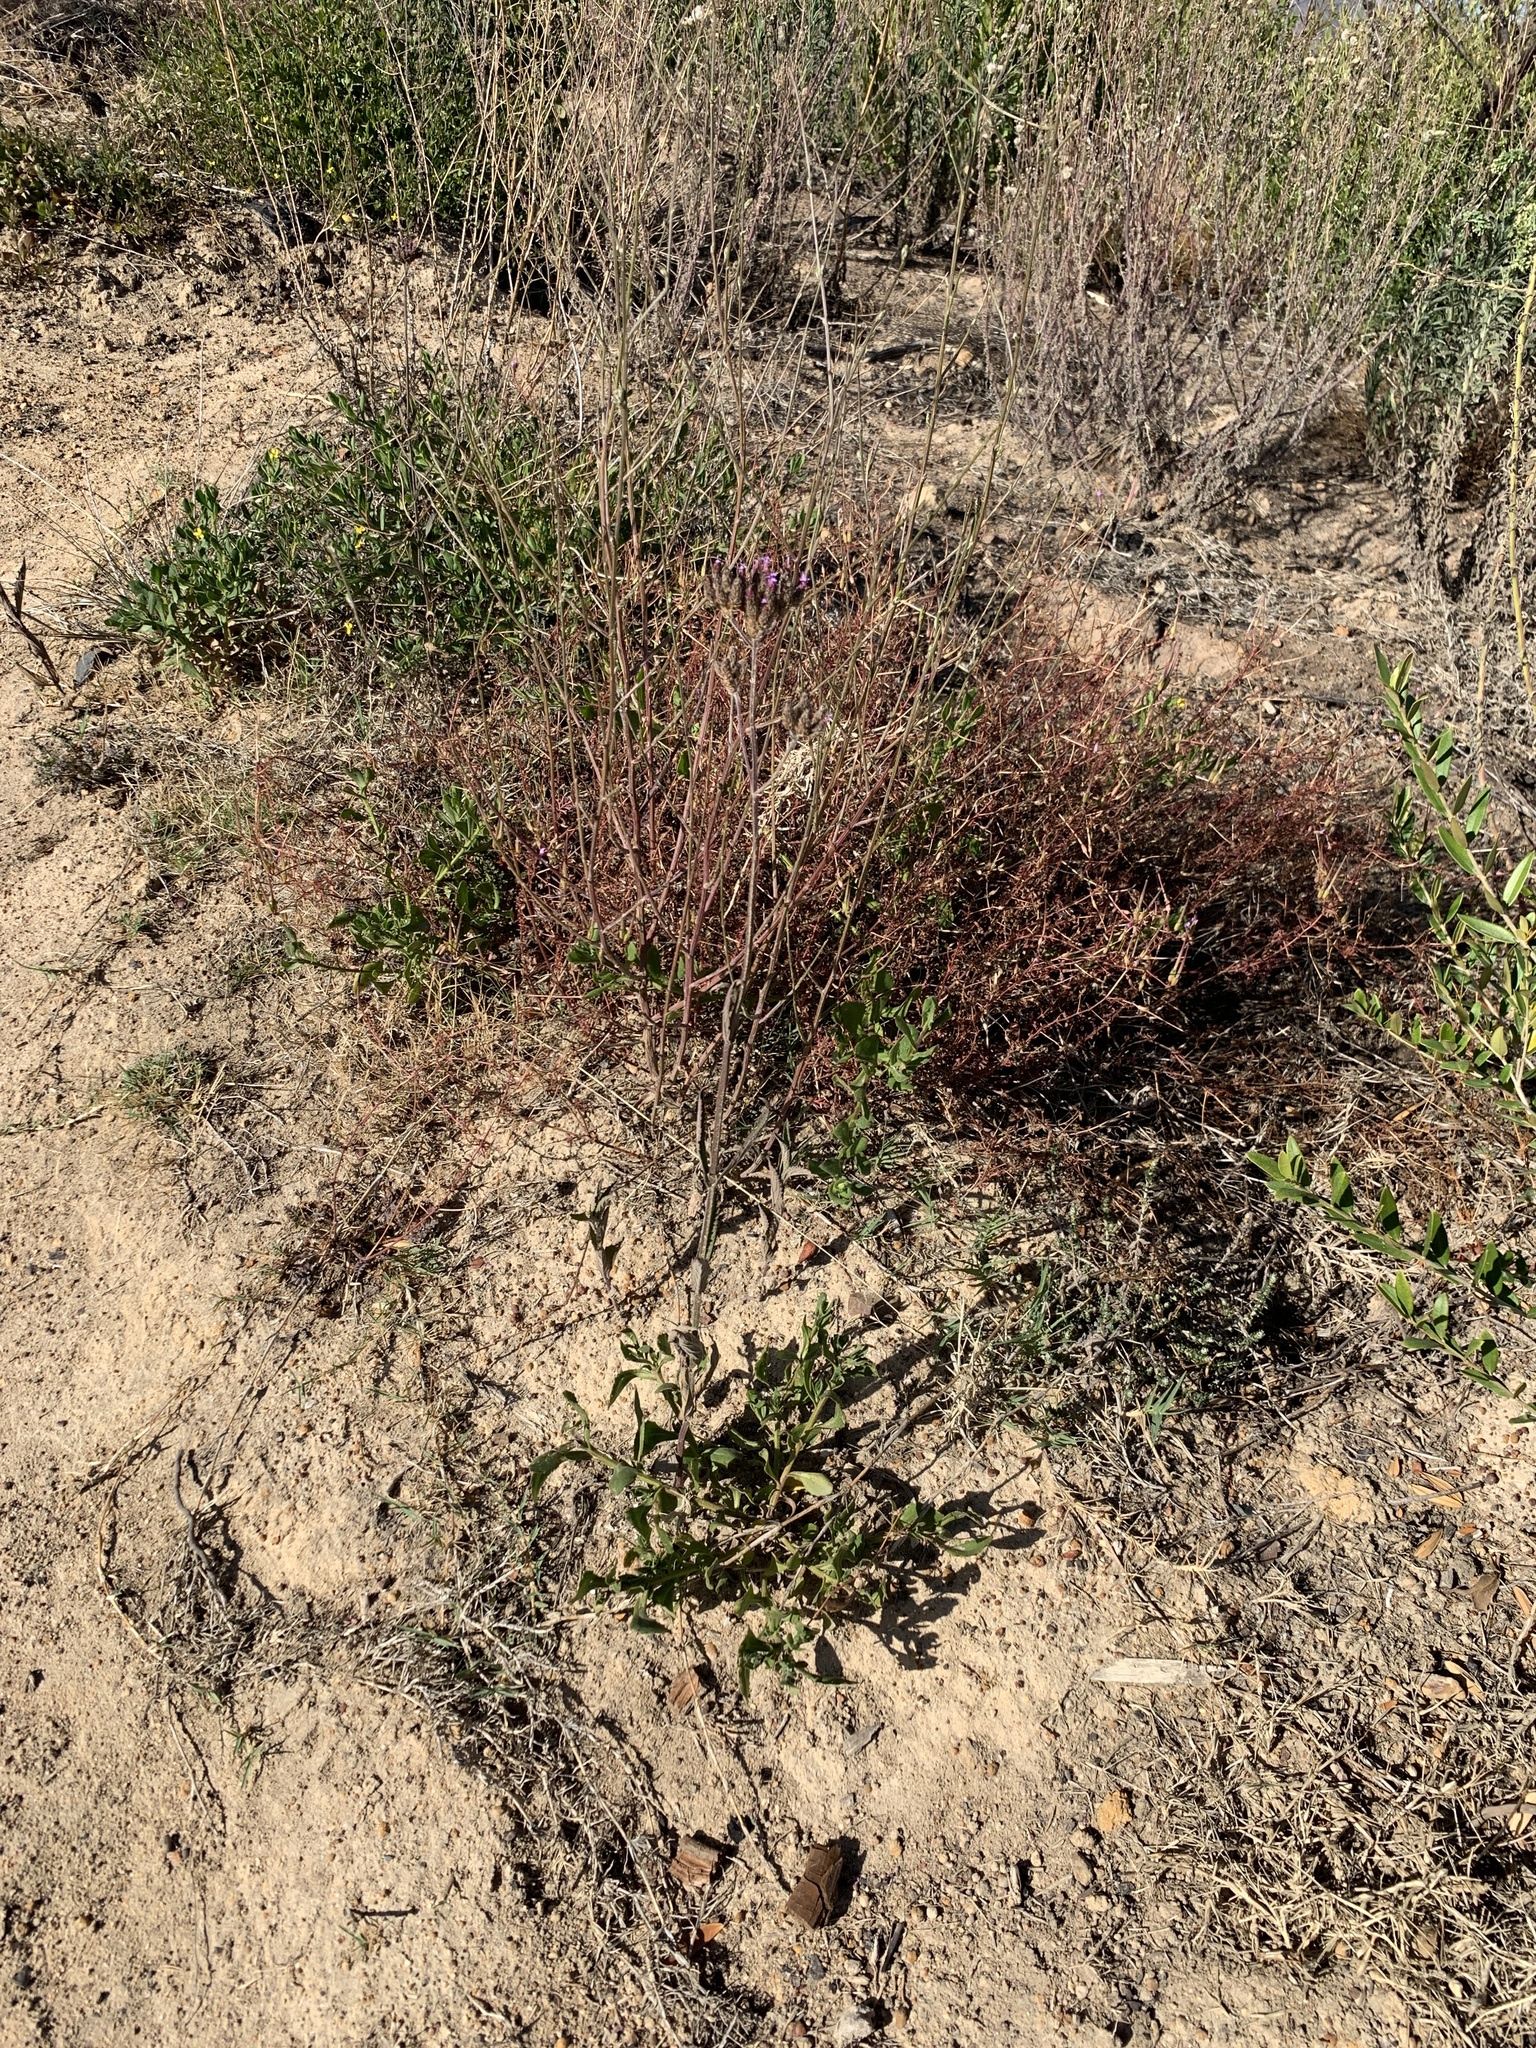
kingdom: Plantae
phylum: Tracheophyta
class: Magnoliopsida
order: Lamiales
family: Verbenaceae
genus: Verbena
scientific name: Verbena bonariensis
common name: Purpletop vervain
